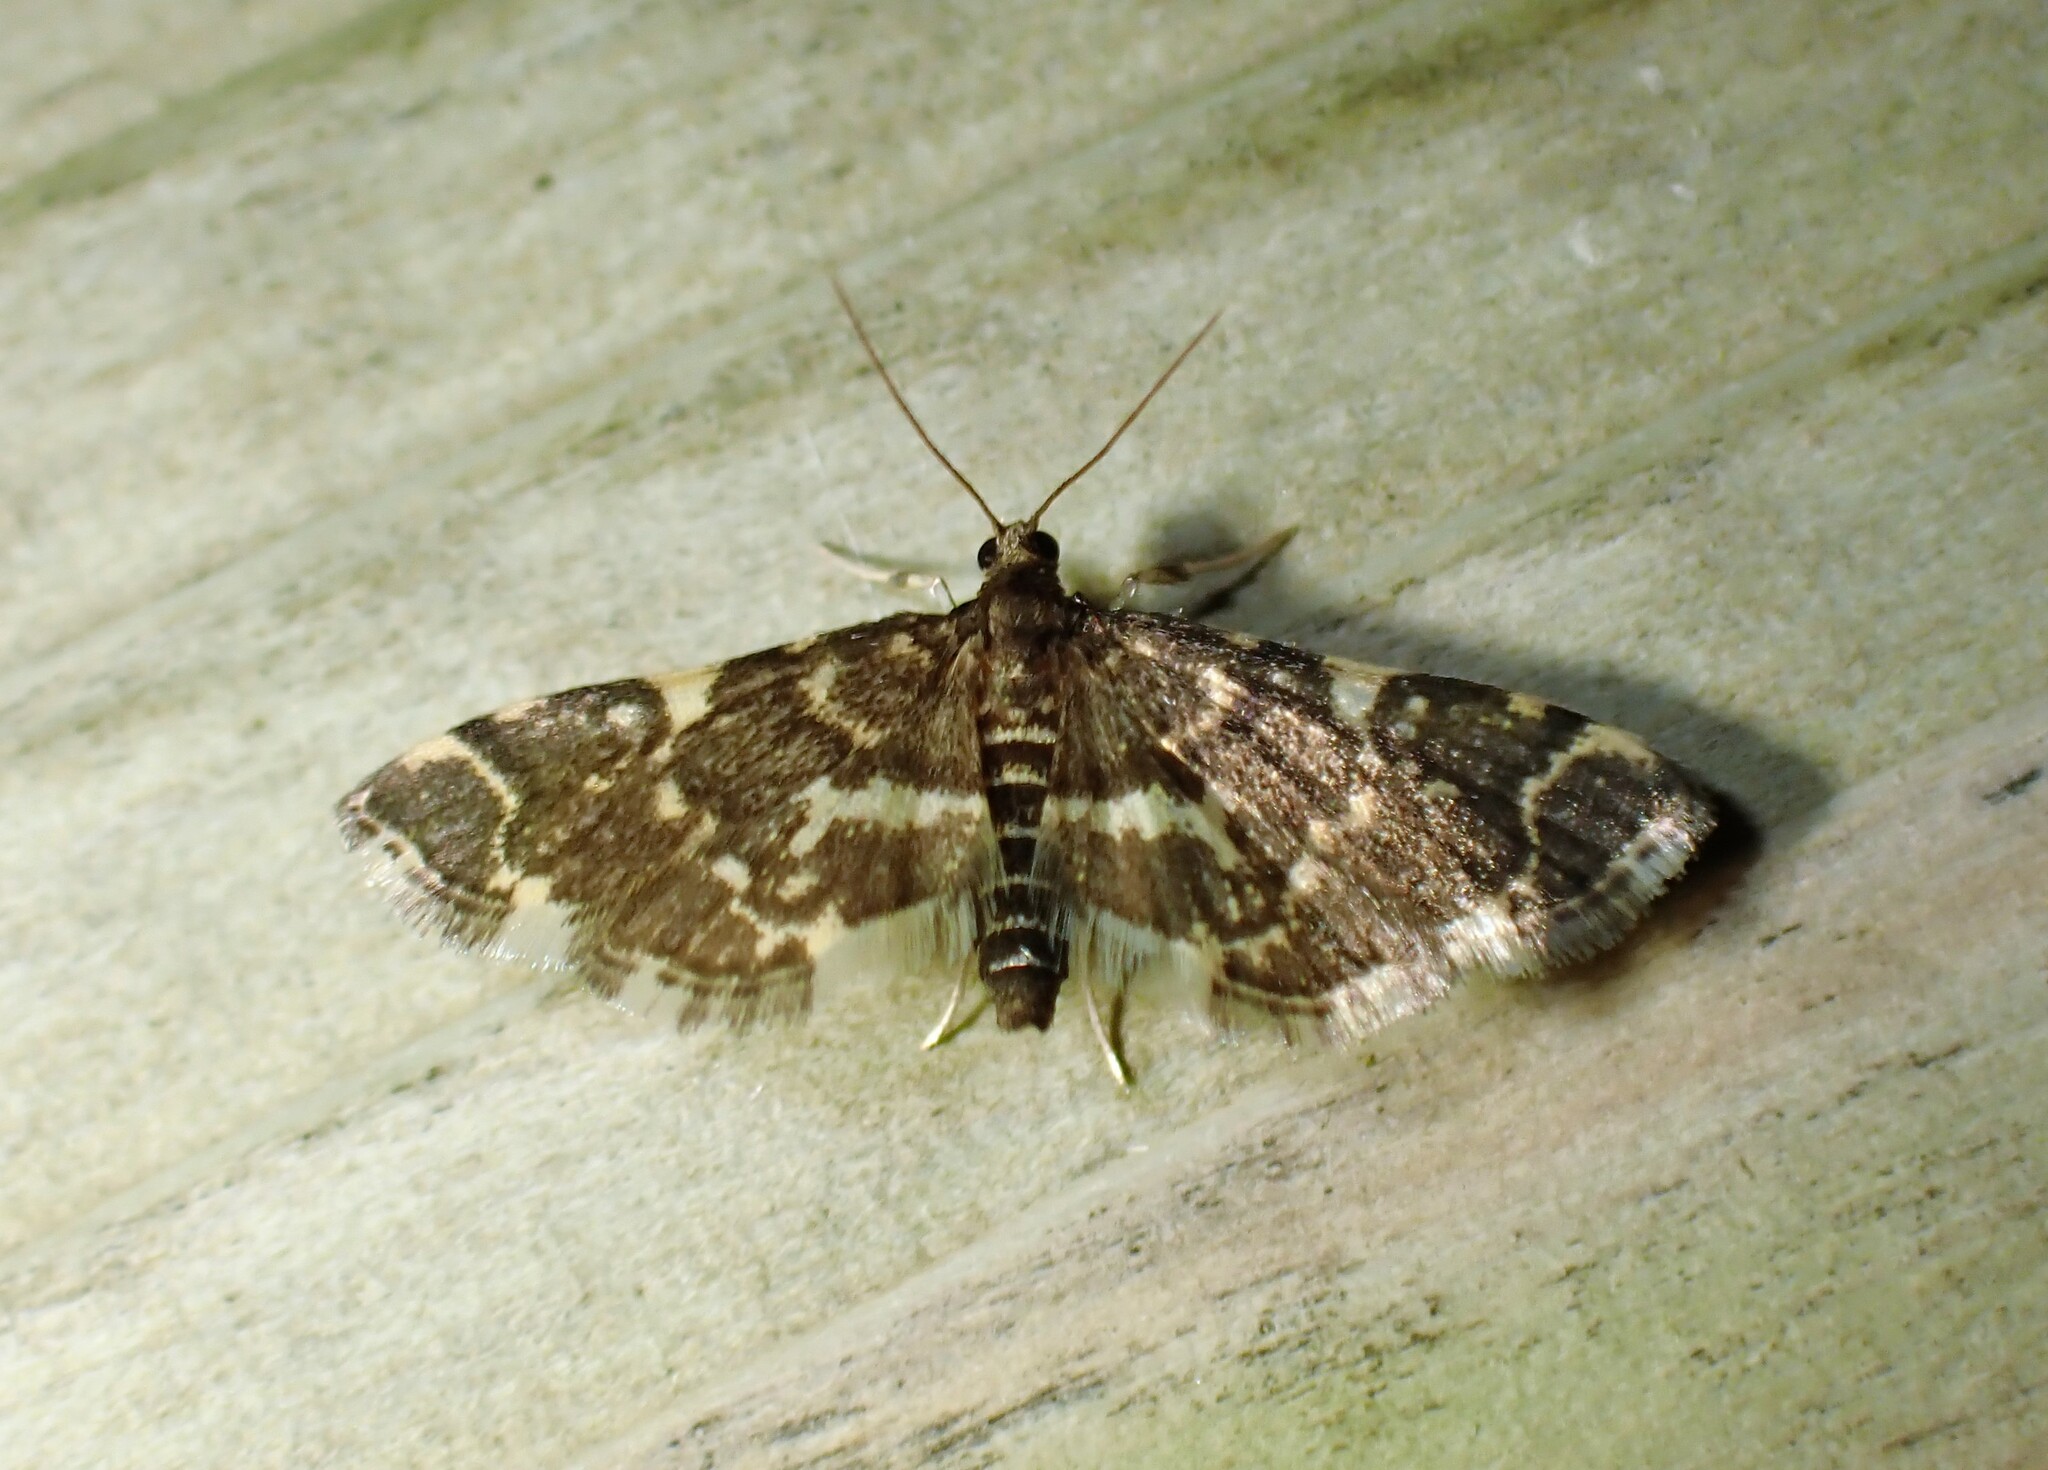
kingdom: Animalia
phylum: Arthropoda
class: Insecta
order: Lepidoptera
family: Crambidae
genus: Anageshna
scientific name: Anageshna primordialis
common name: Yellow-spotted webworm moth
